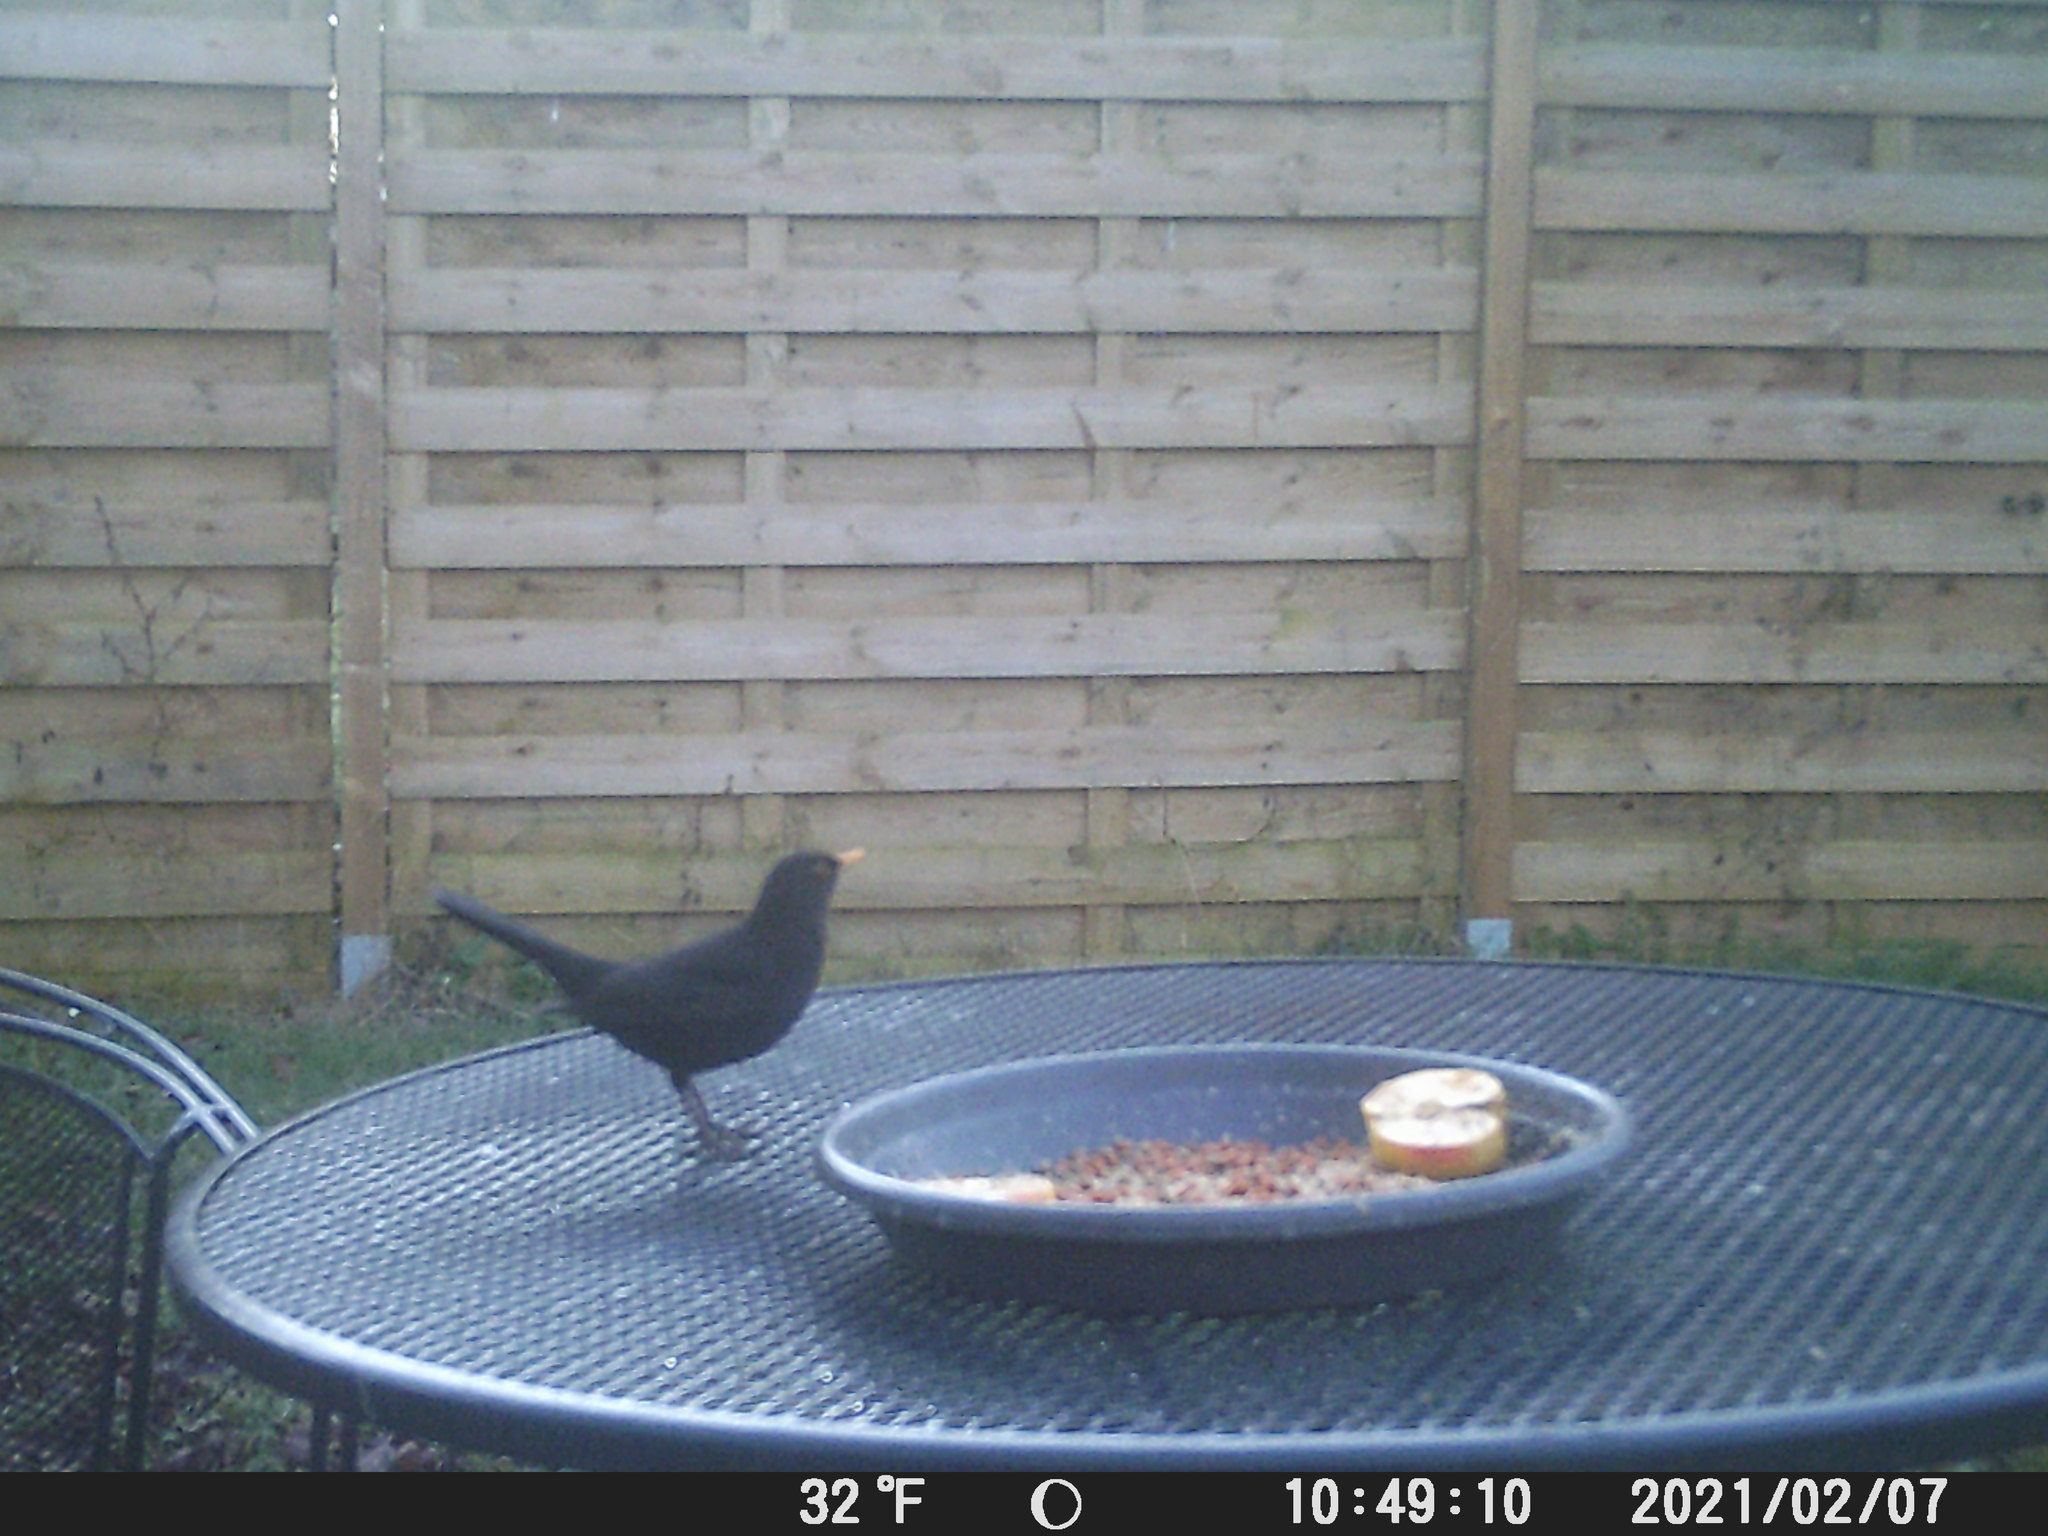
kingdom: Animalia
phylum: Chordata
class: Aves
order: Passeriformes
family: Turdidae
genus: Turdus
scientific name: Turdus merula
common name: Common blackbird
